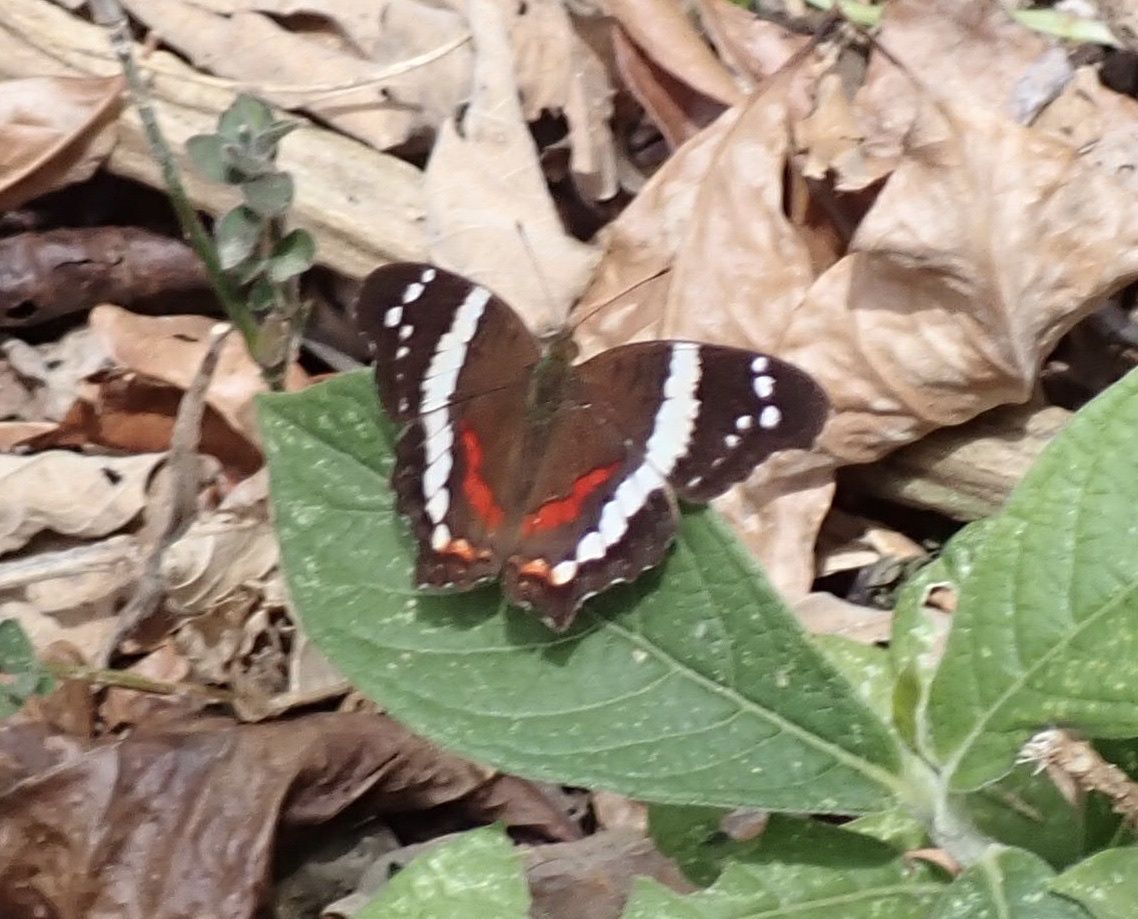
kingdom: Animalia
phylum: Arthropoda
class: Insecta
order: Lepidoptera
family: Nymphalidae
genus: Anartia
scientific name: Anartia fatima
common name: Banded peacock
